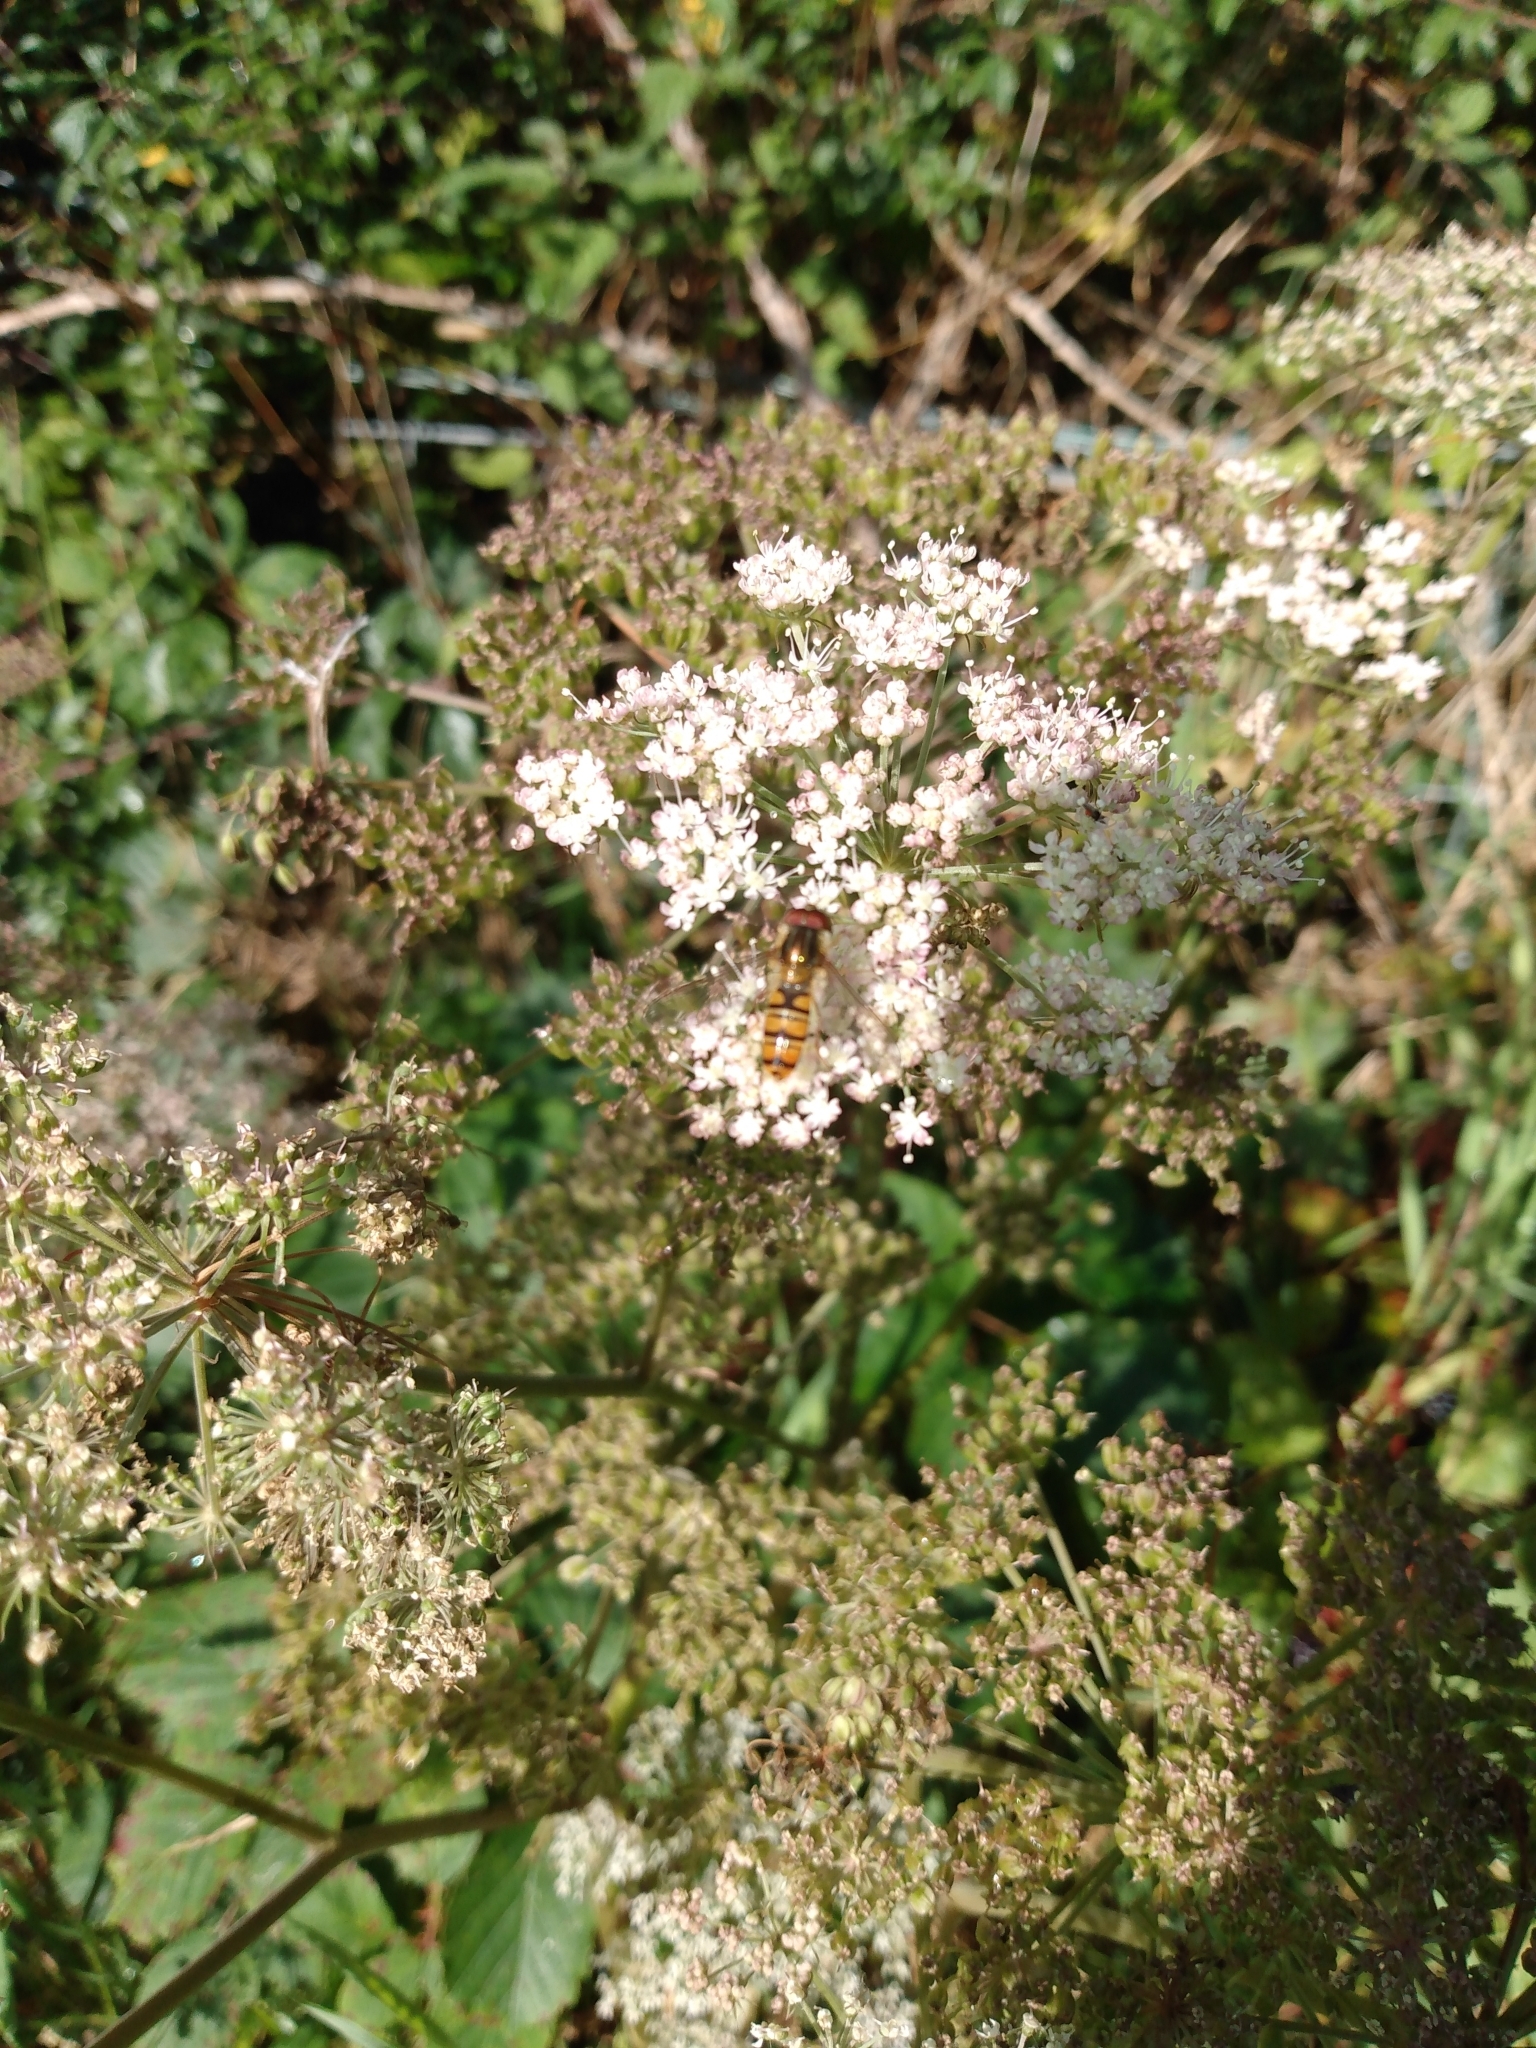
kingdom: Animalia
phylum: Arthropoda
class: Insecta
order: Diptera
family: Syrphidae
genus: Episyrphus
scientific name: Episyrphus balteatus
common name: Marmalade hoverfly
